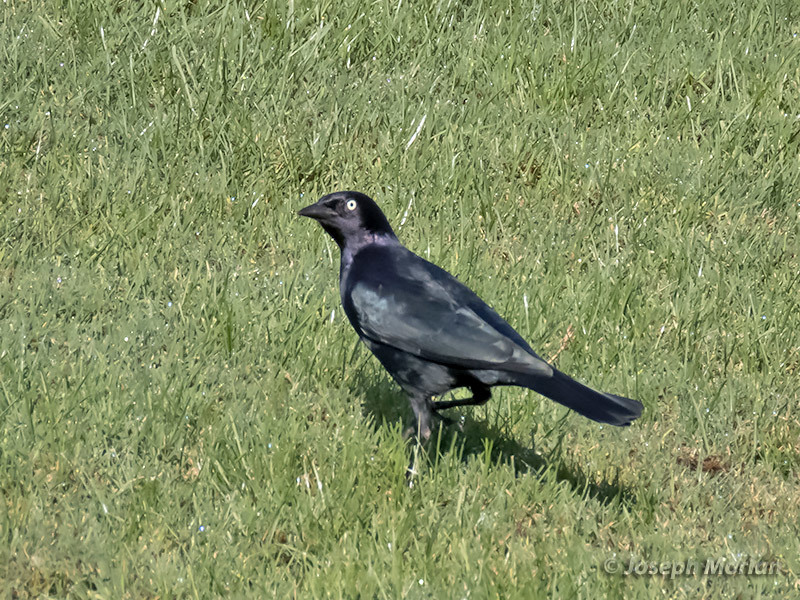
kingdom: Animalia
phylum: Chordata
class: Aves
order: Passeriformes
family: Icteridae
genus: Euphagus
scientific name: Euphagus cyanocephalus
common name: Brewer's blackbird
